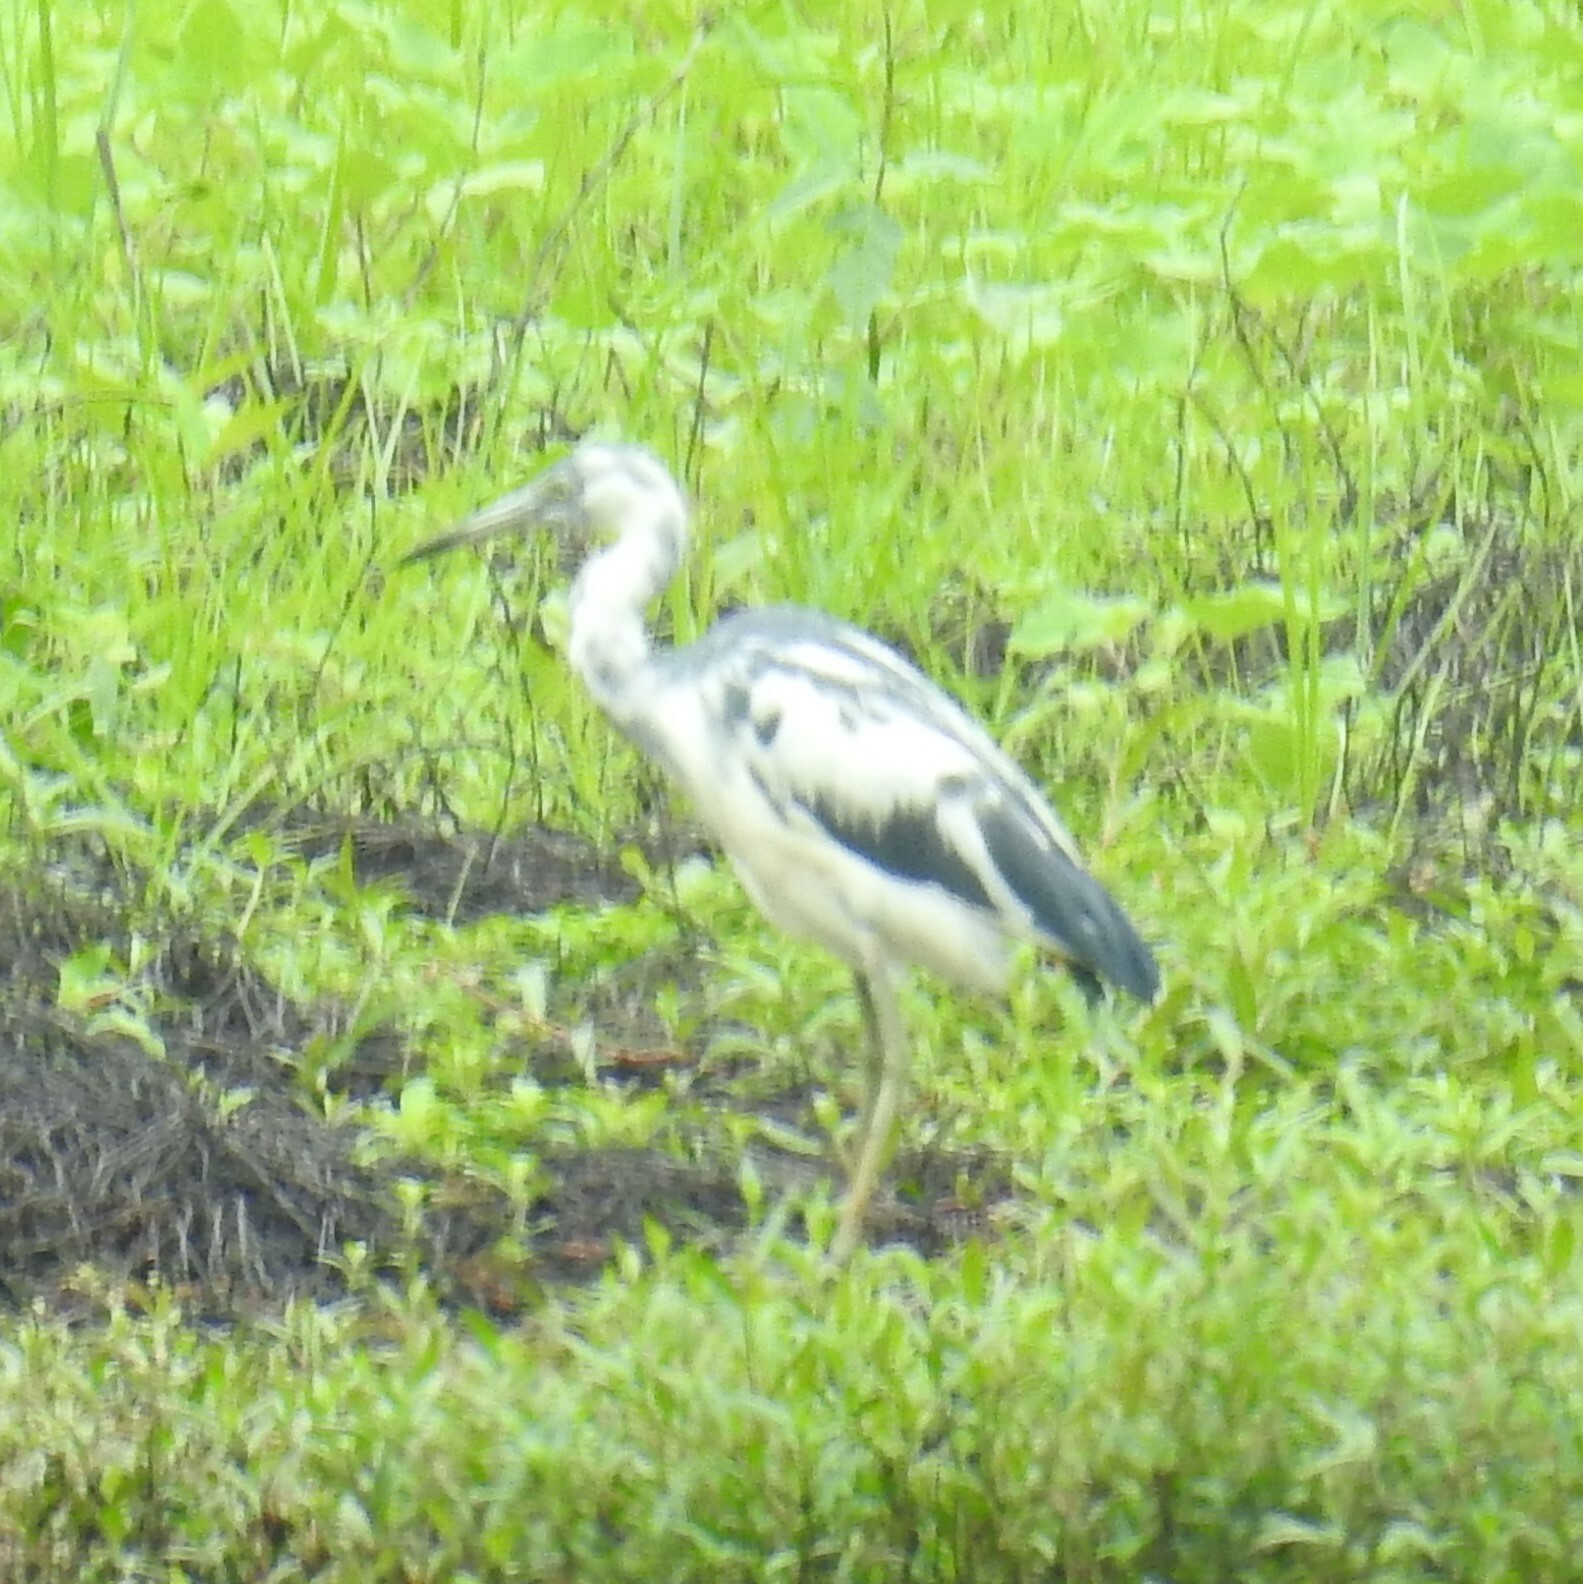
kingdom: Animalia
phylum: Chordata
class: Aves
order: Pelecaniformes
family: Ardeidae
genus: Egretta
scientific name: Egretta caerulea
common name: Little blue heron
